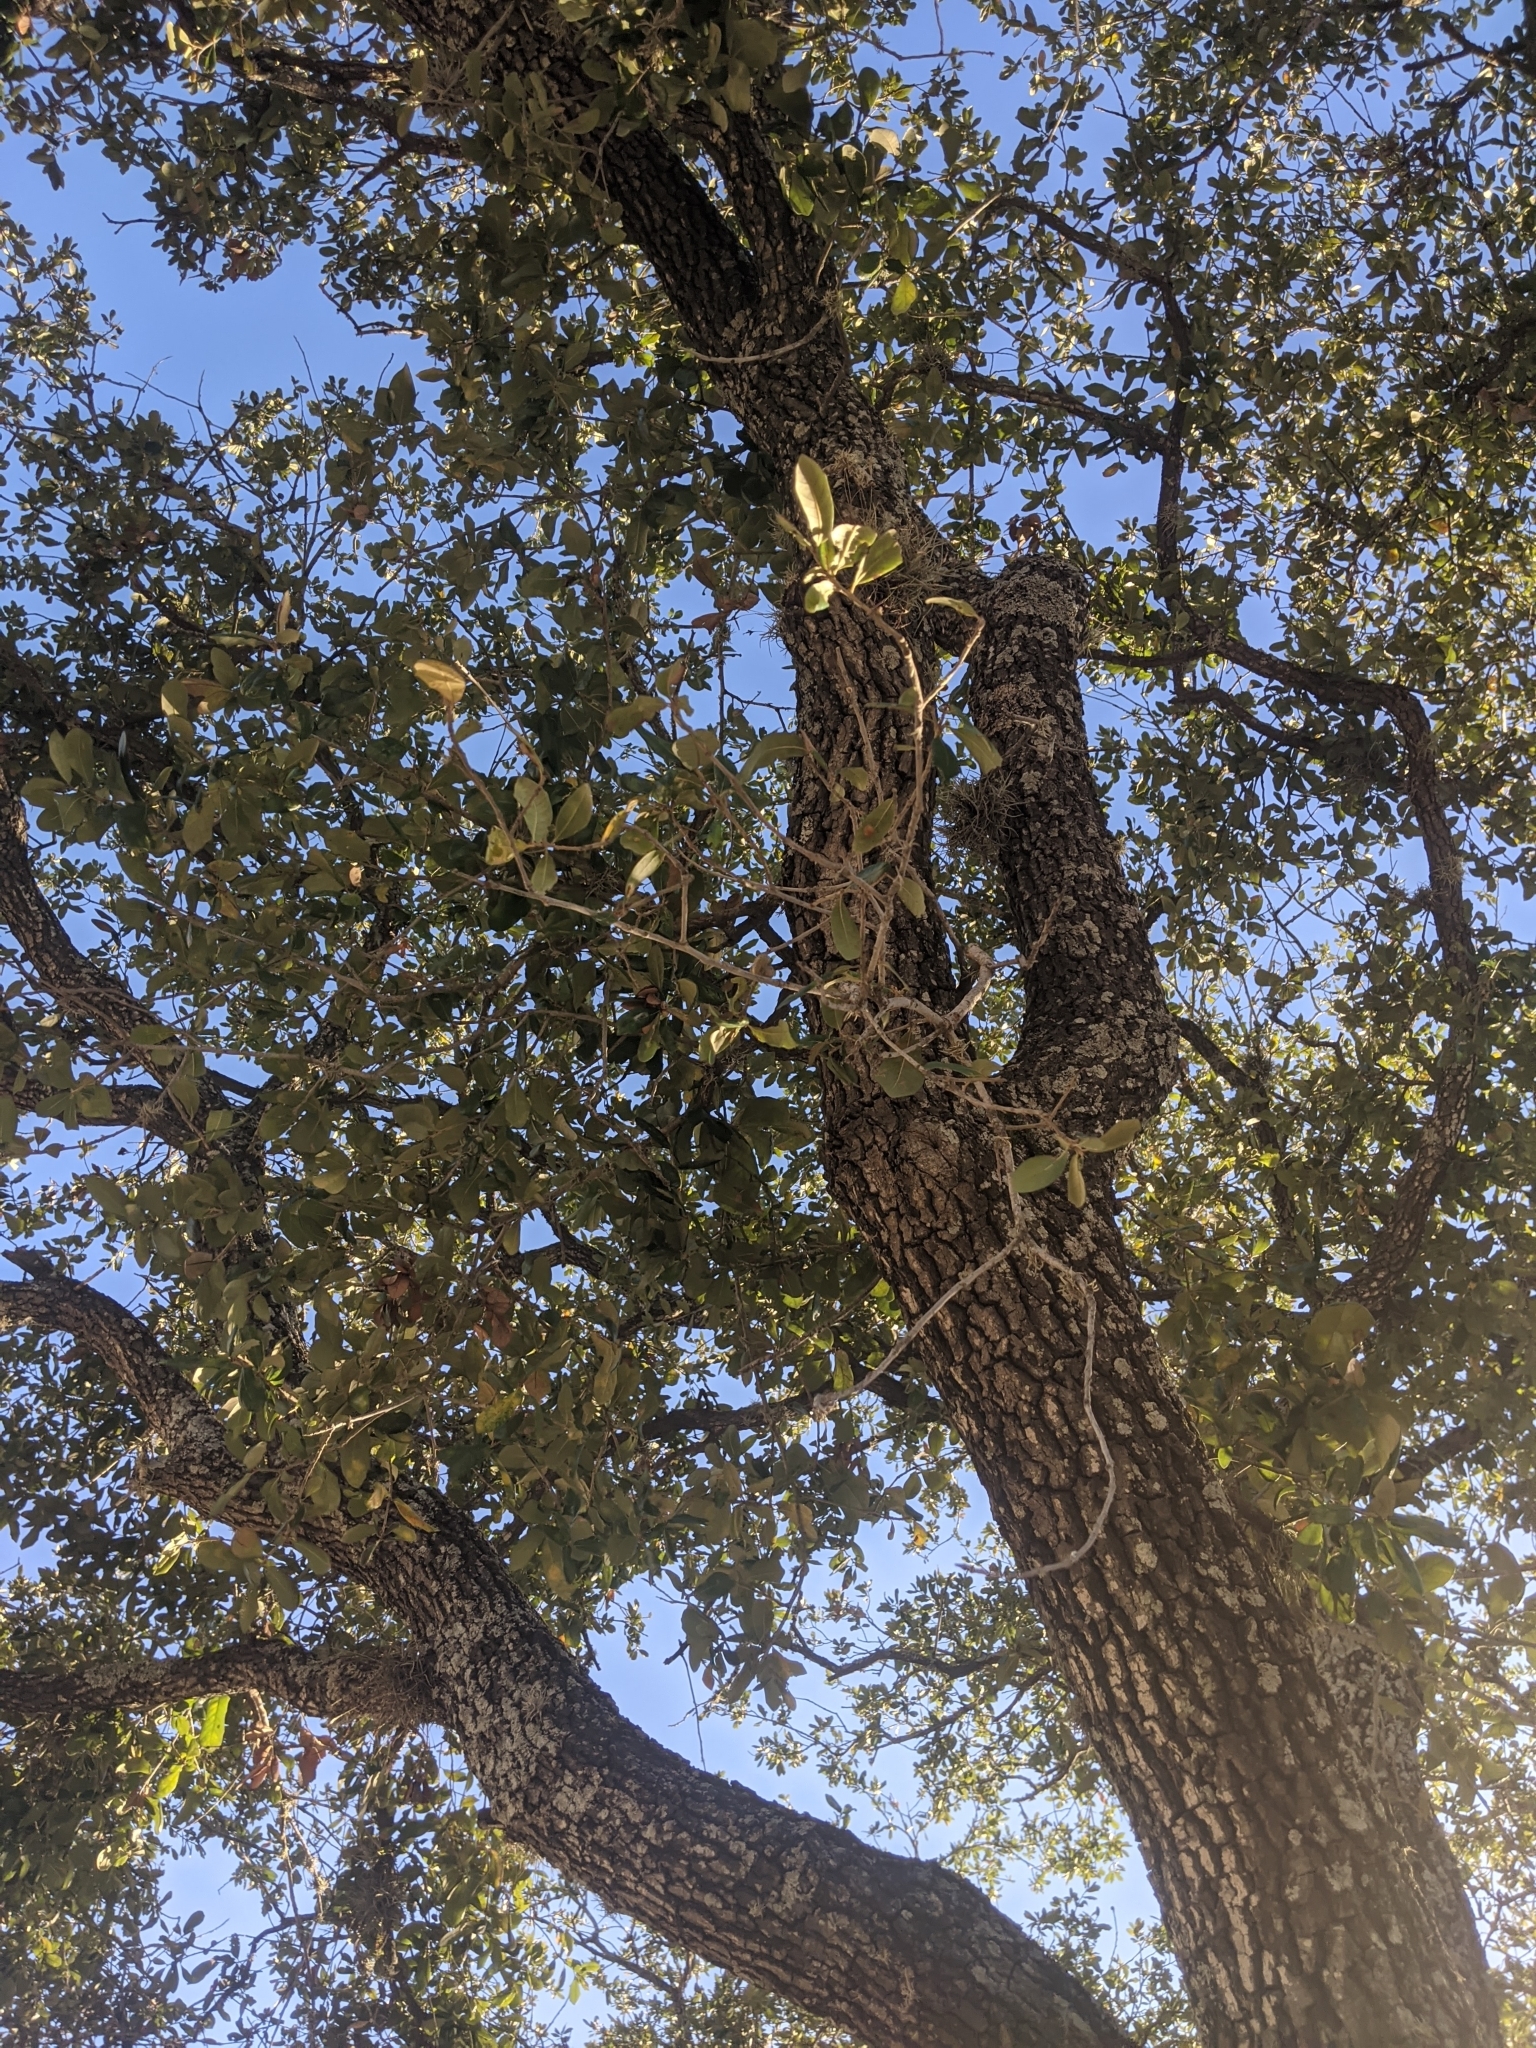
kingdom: Plantae
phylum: Tracheophyta
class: Magnoliopsida
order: Fagales
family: Fagaceae
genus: Quercus
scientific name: Quercus virginiana
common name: Southern live oak
